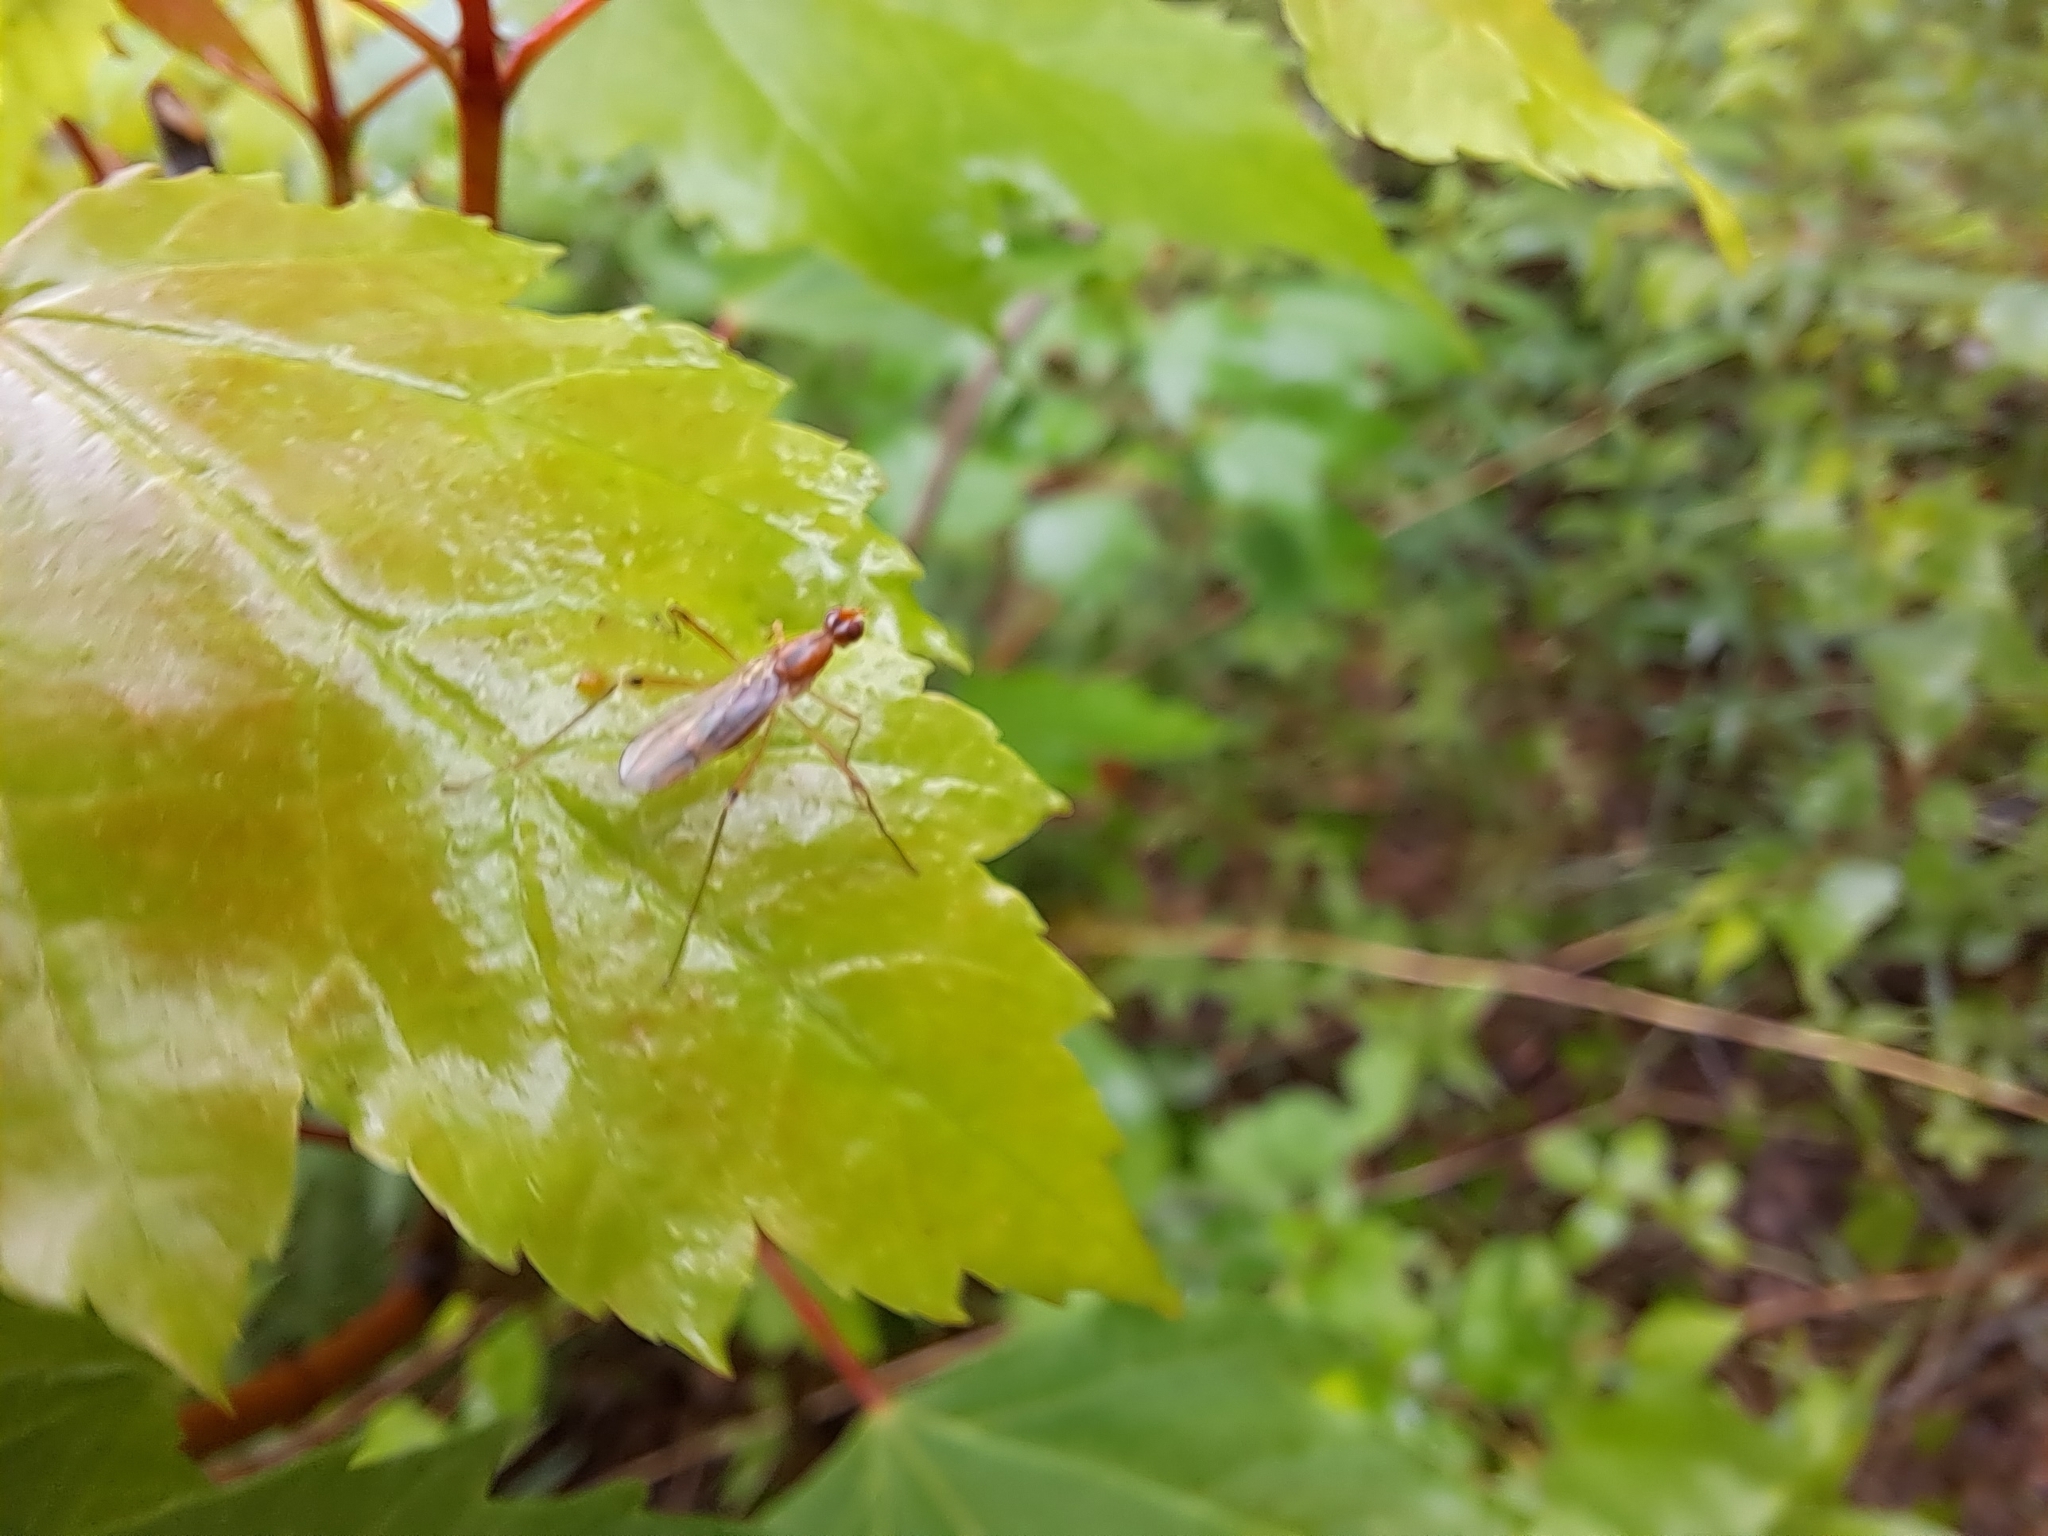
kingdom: Animalia
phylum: Arthropoda
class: Insecta
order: Diptera
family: Micropezidae
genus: Compsobata
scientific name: Compsobata univitta
